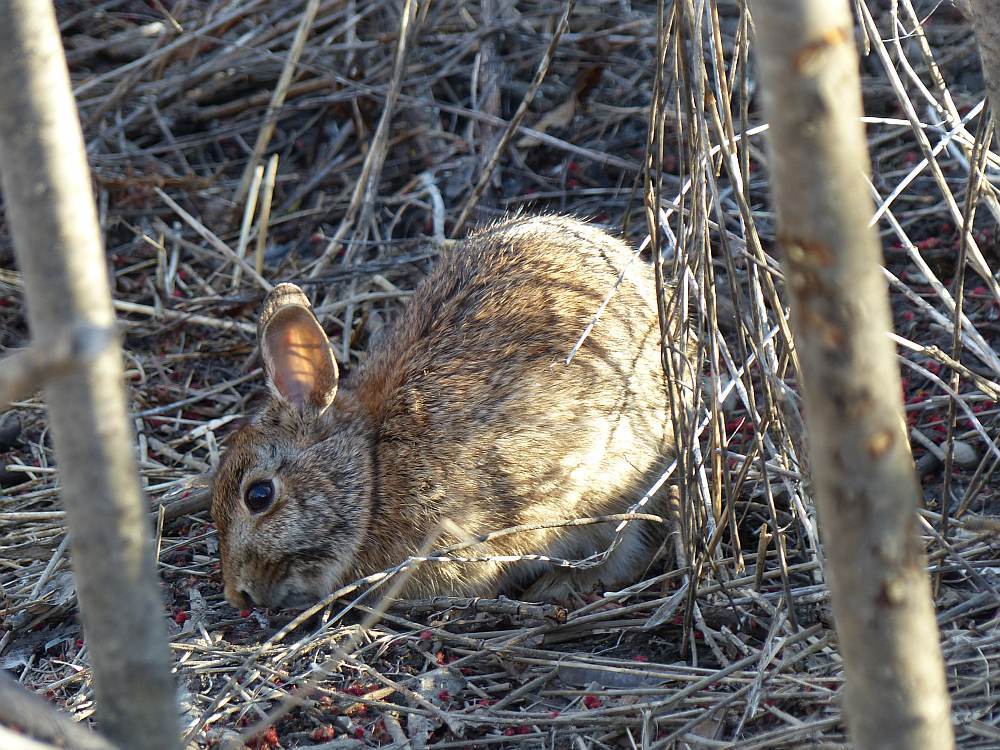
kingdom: Animalia
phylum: Chordata
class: Mammalia
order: Lagomorpha
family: Leporidae
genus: Sylvilagus
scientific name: Sylvilagus floridanus
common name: Eastern cottontail
